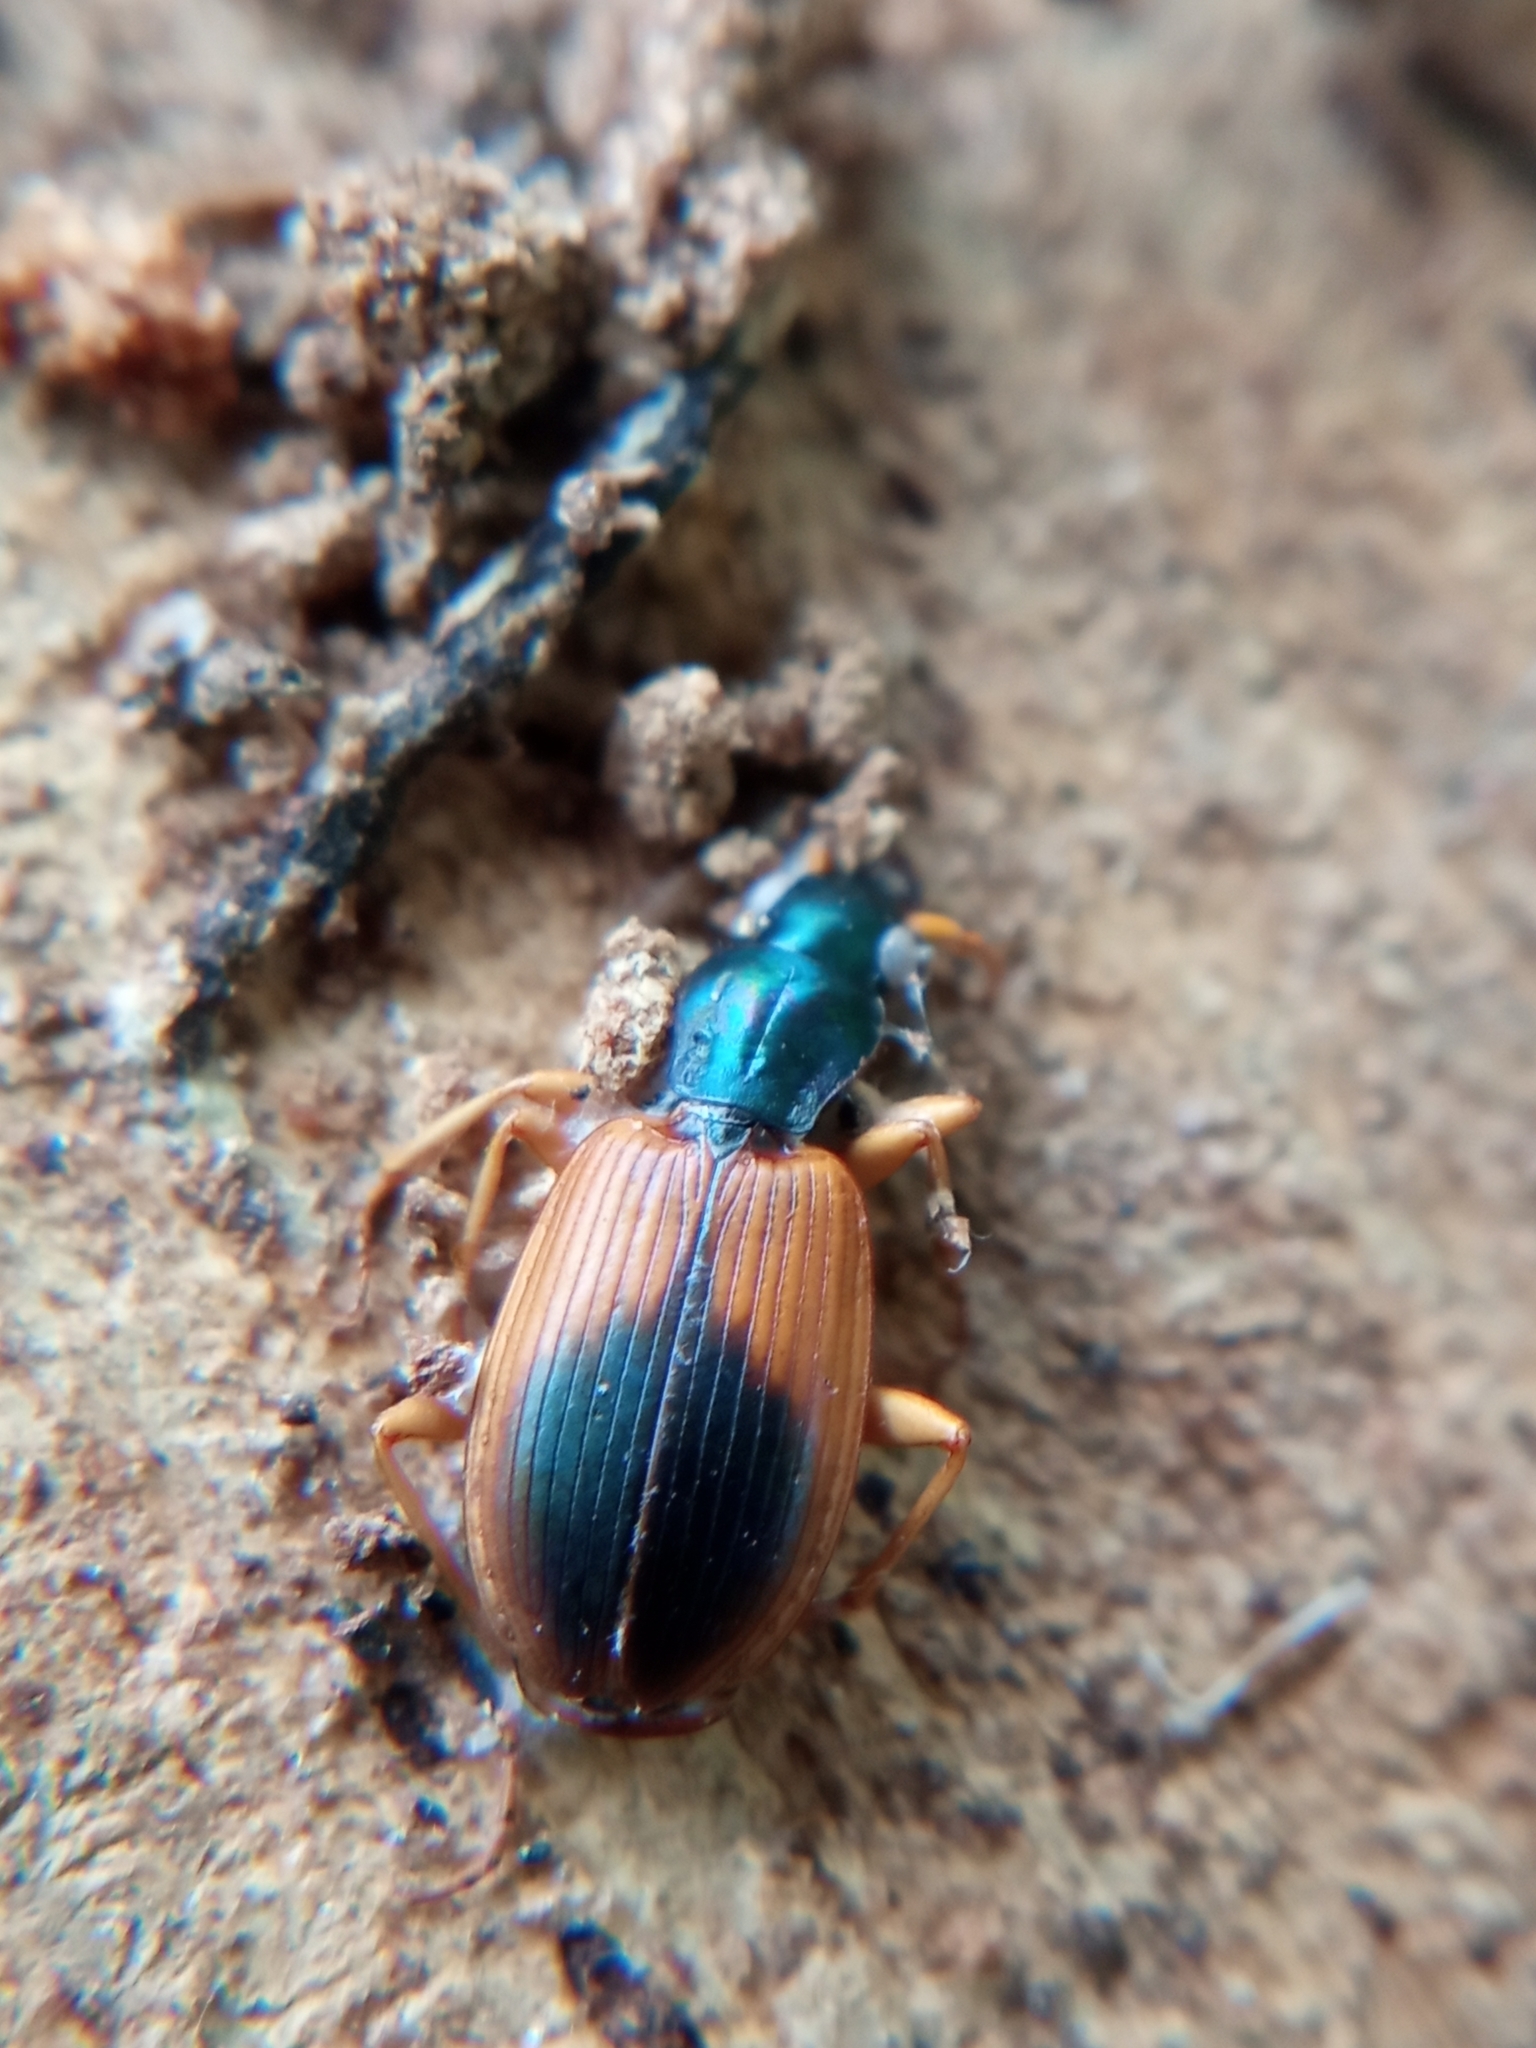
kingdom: Animalia
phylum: Arthropoda
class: Insecta
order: Coleoptera
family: Carabidae
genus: Anchomenus
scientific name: Anchomenus dorsalis
